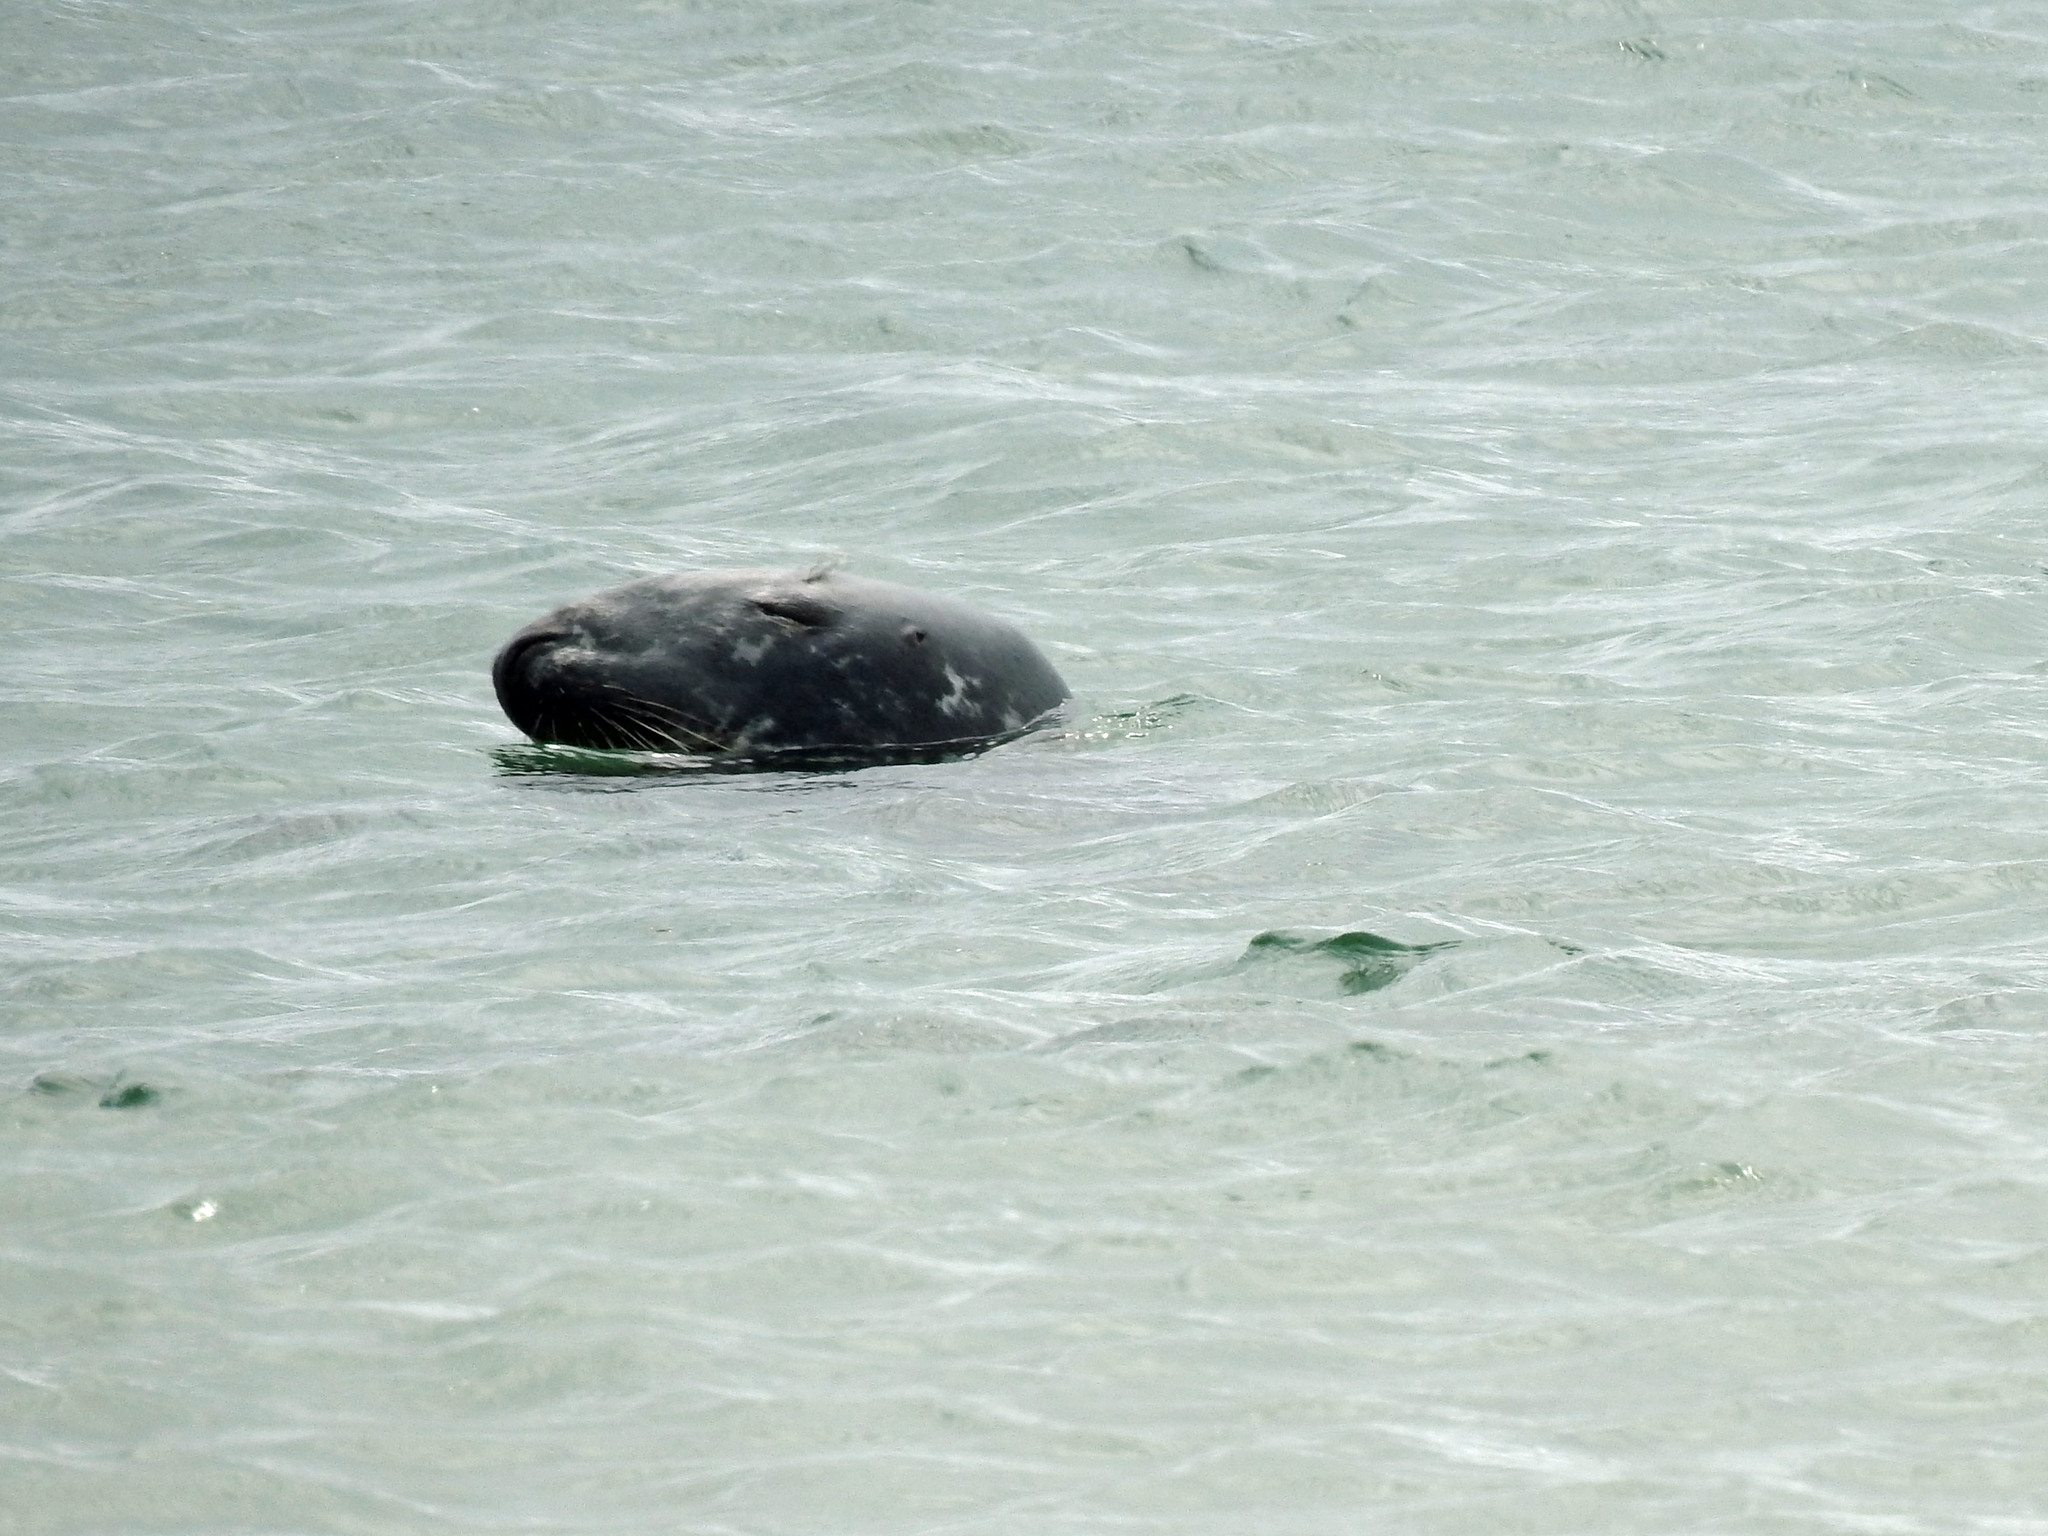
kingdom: Animalia
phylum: Chordata
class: Mammalia
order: Carnivora
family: Phocidae
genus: Halichoerus
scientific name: Halichoerus grypus
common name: Grey seal
